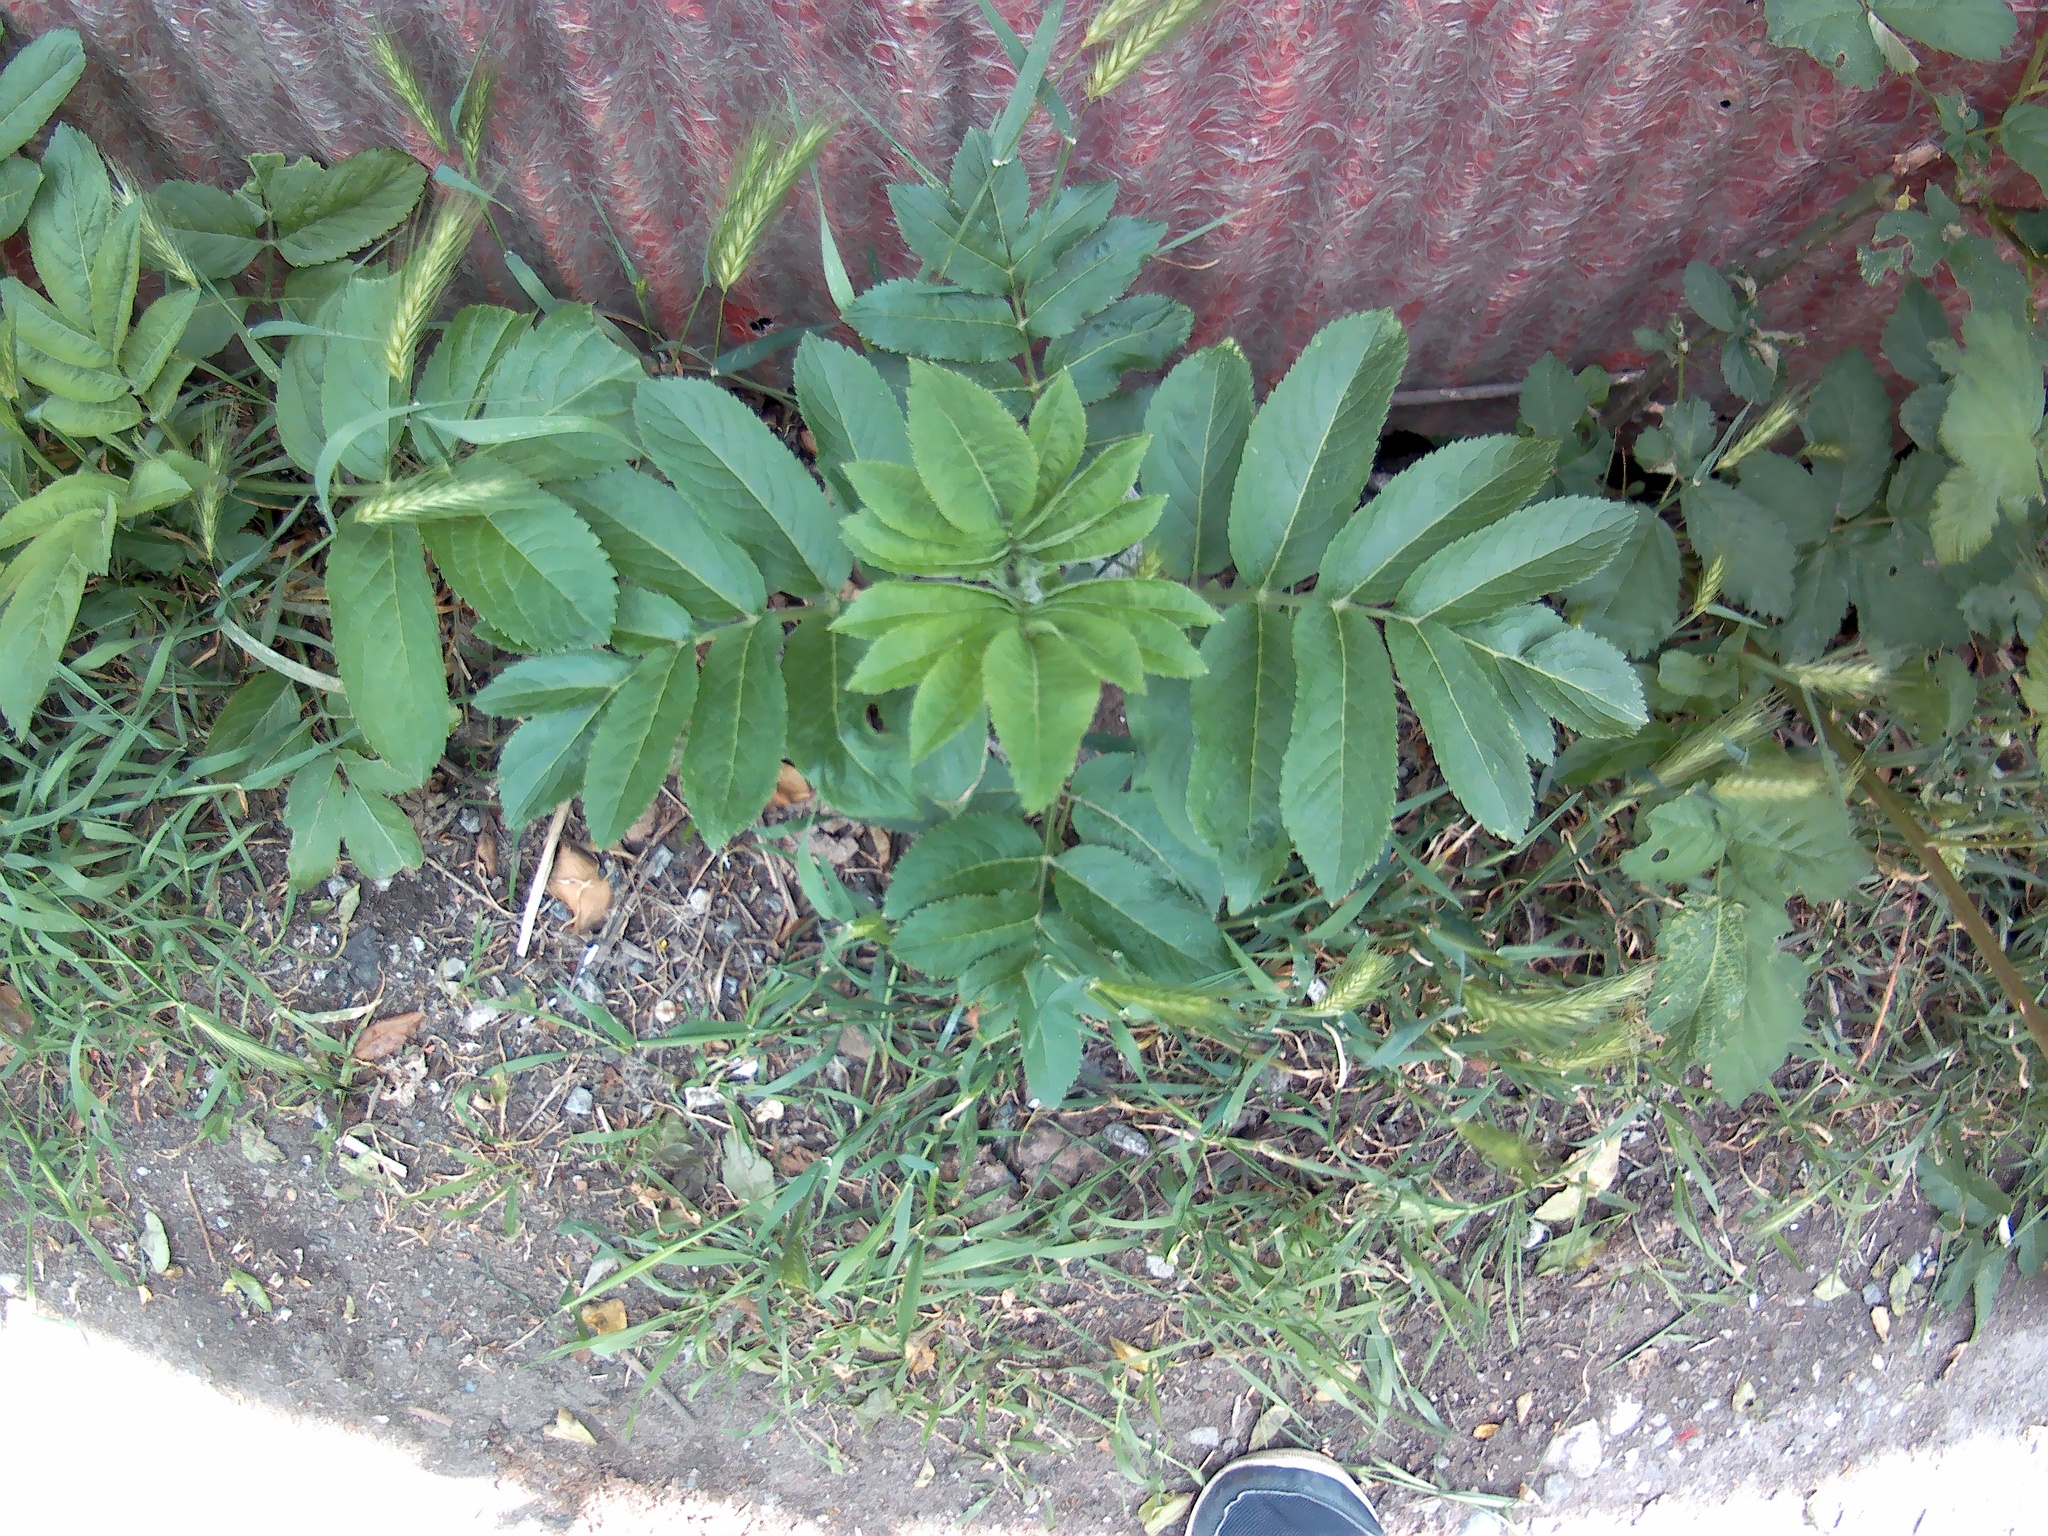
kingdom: Plantae
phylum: Tracheophyta
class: Magnoliopsida
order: Dipsacales
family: Viburnaceae
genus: Sambucus
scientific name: Sambucus ebulus
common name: Dwarf elder
